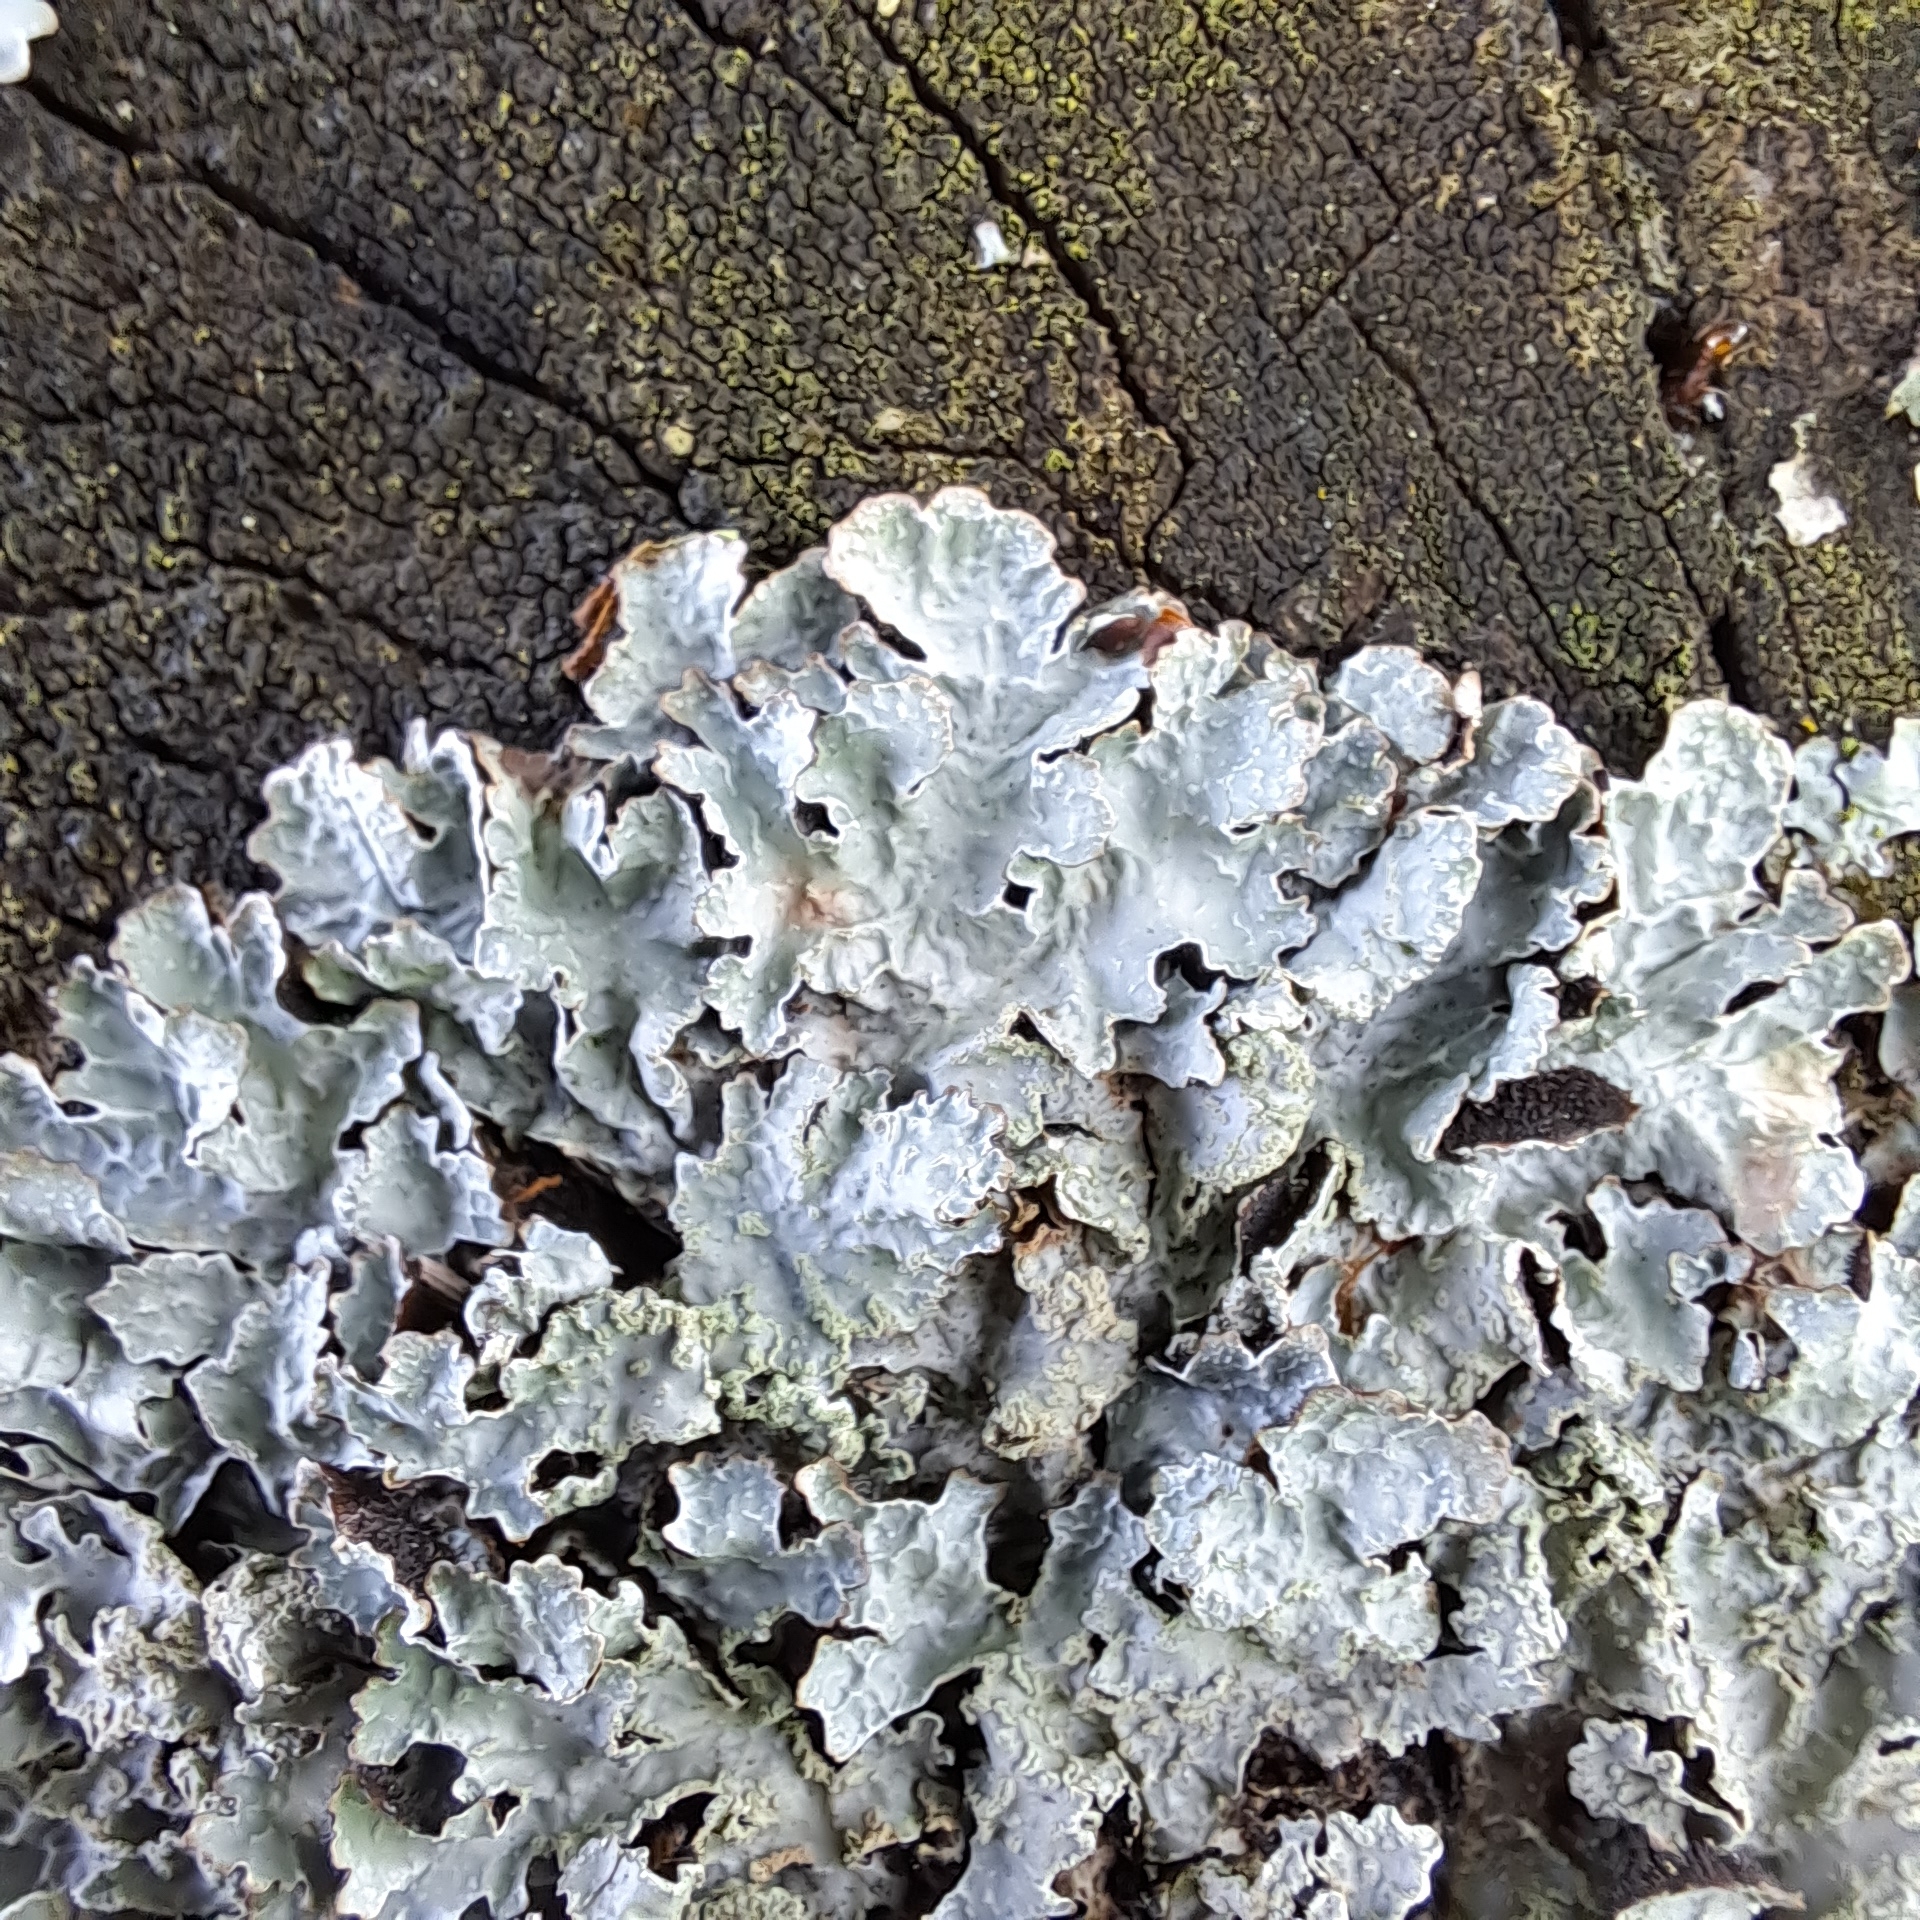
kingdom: Fungi
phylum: Ascomycota
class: Lecanoromycetes
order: Lecanorales
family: Parmeliaceae
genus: Parmelia
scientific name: Parmelia sulcata
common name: Netted shield lichen
